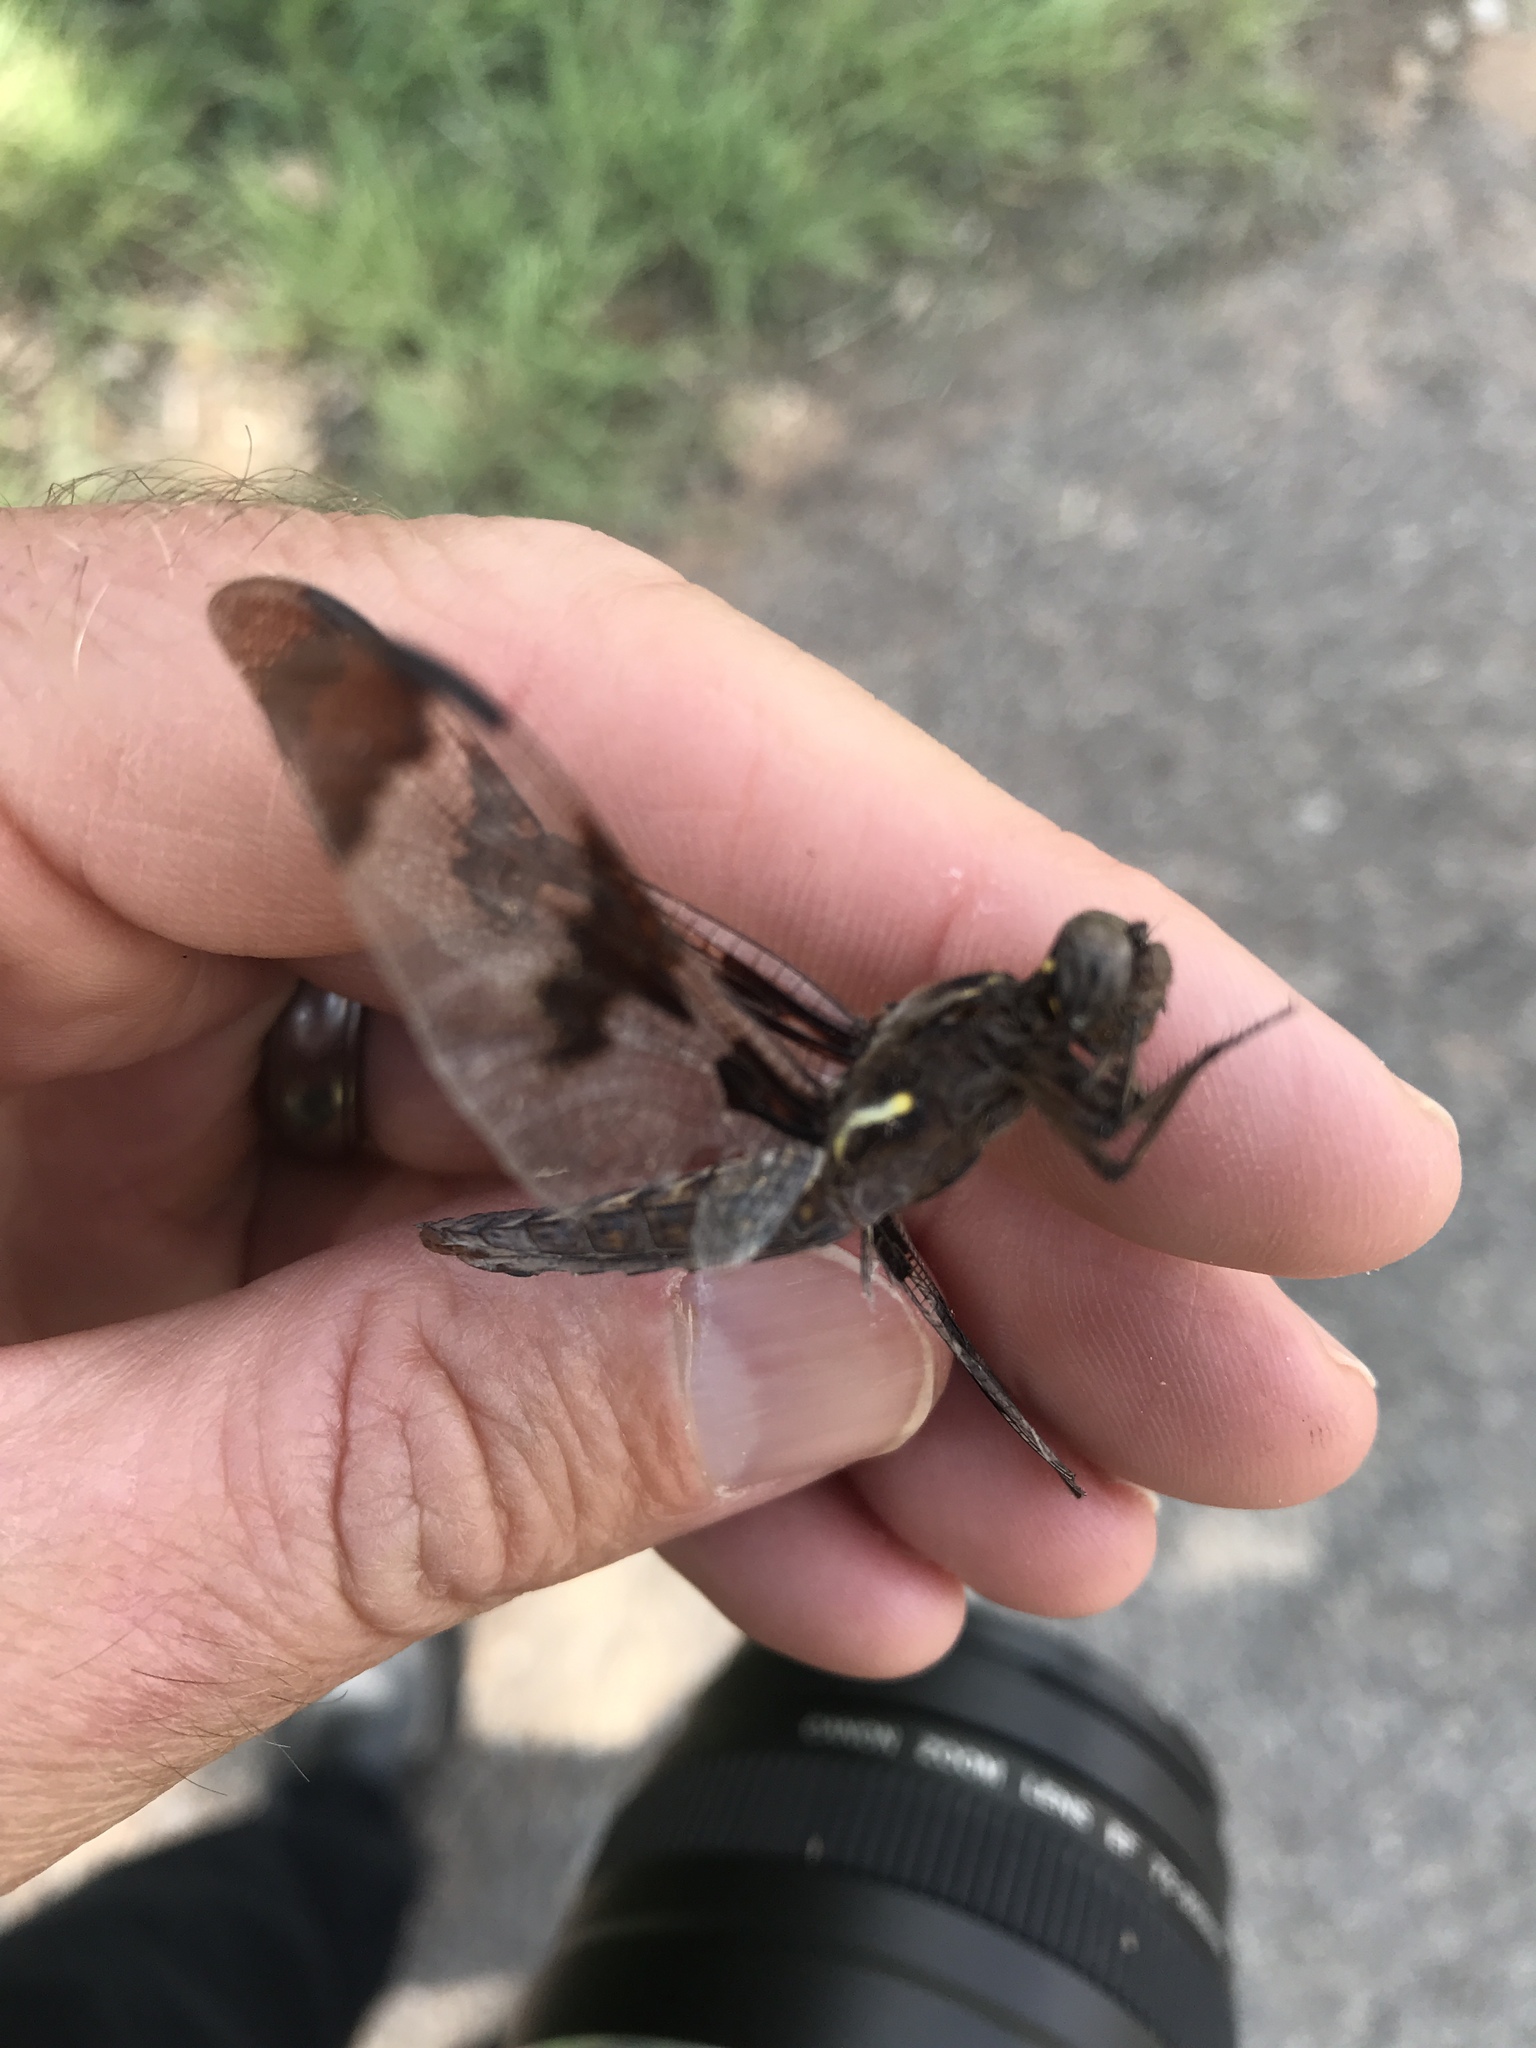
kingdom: Animalia
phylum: Arthropoda
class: Insecta
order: Odonata
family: Libellulidae
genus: Plathemis
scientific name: Plathemis lydia
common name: Common whitetail
